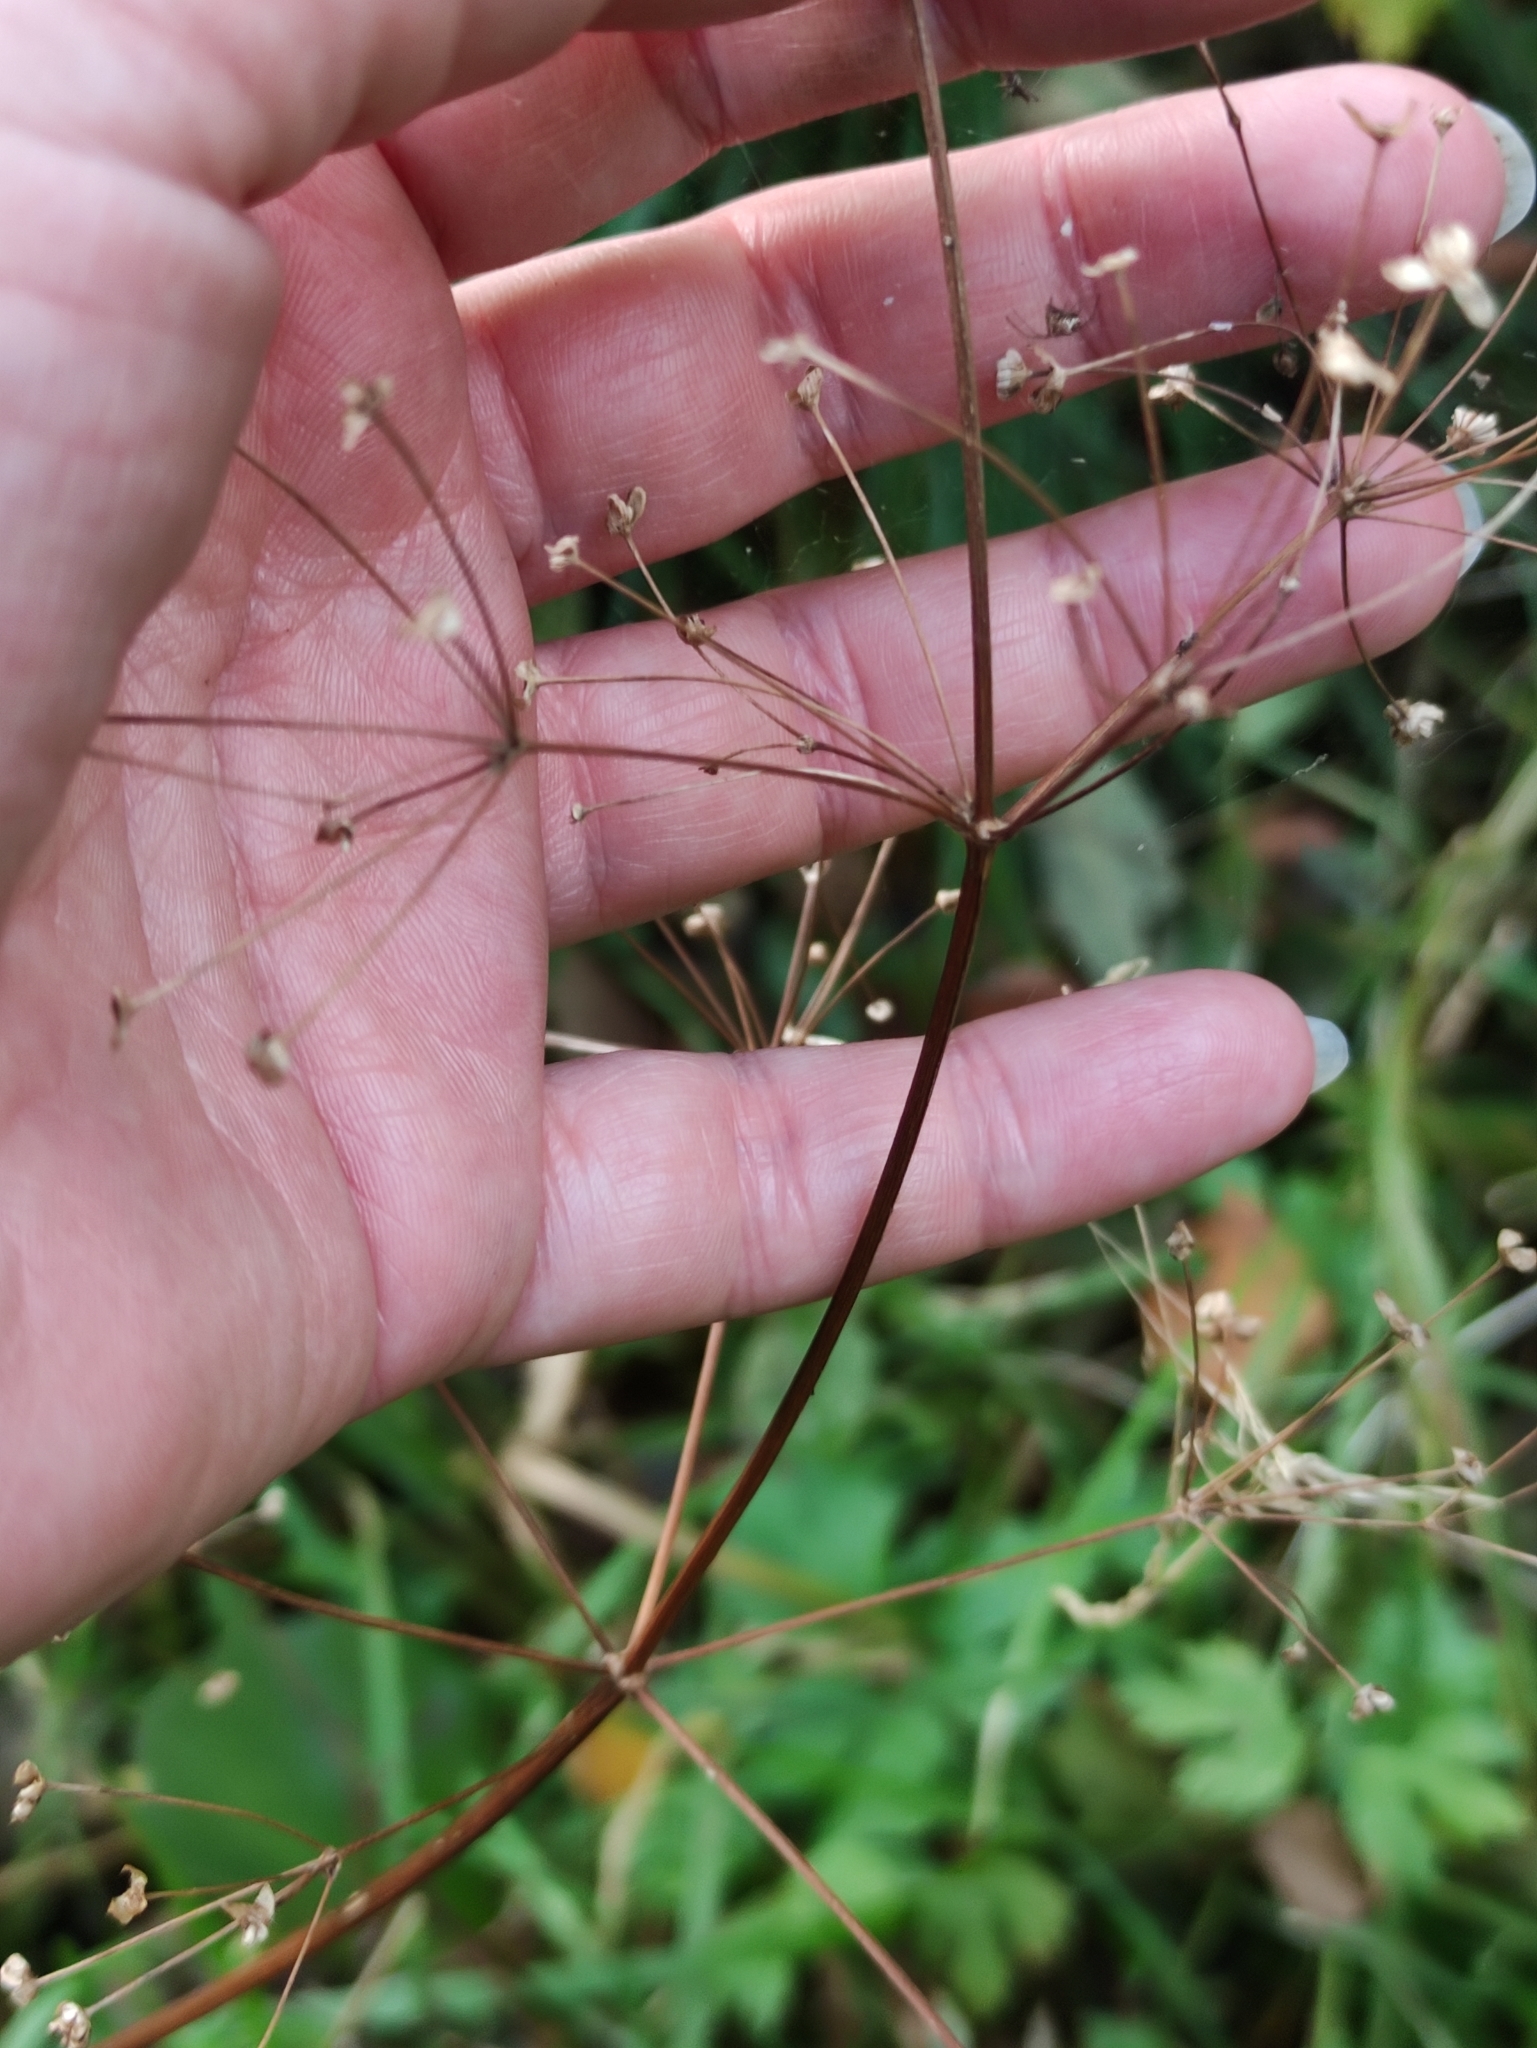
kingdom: Plantae
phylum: Tracheophyta
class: Liliopsida
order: Alismatales
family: Alismataceae
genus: Alisma
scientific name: Alisma plantago-aquatica
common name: Water-plantain
